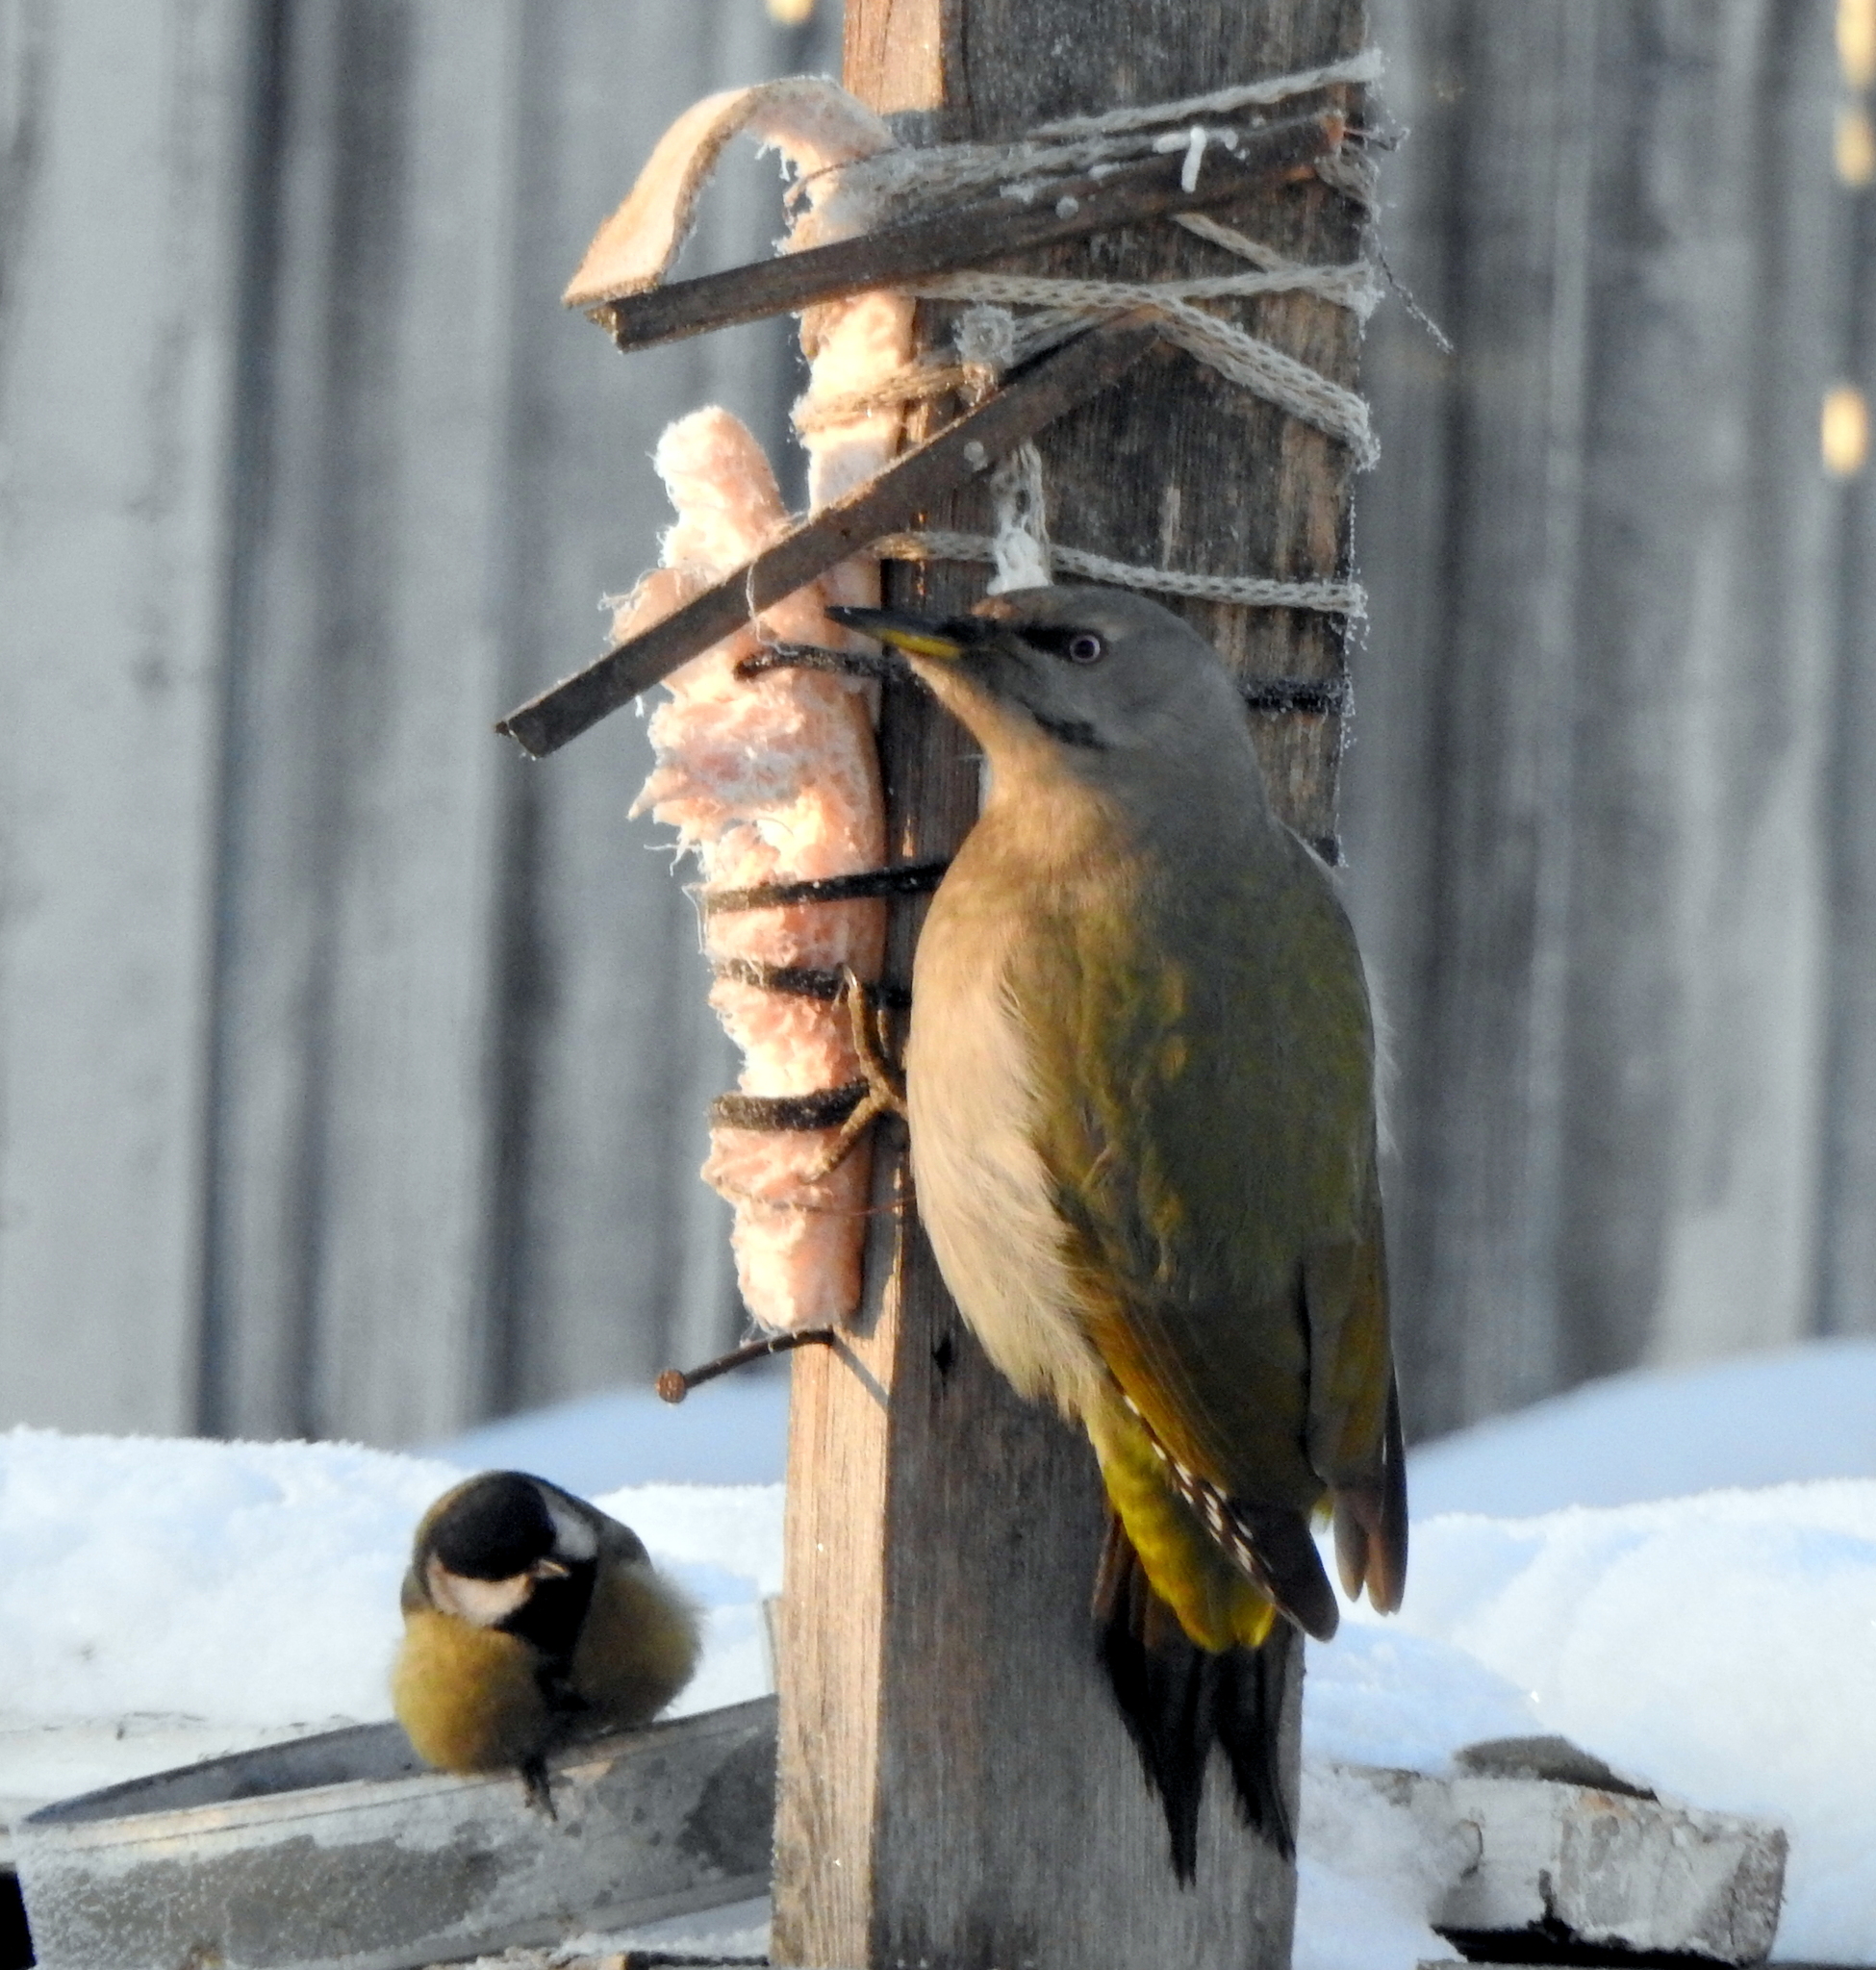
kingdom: Animalia
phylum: Chordata
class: Aves
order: Piciformes
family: Picidae
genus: Picus
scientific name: Picus canus
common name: Grey-headed woodpecker
